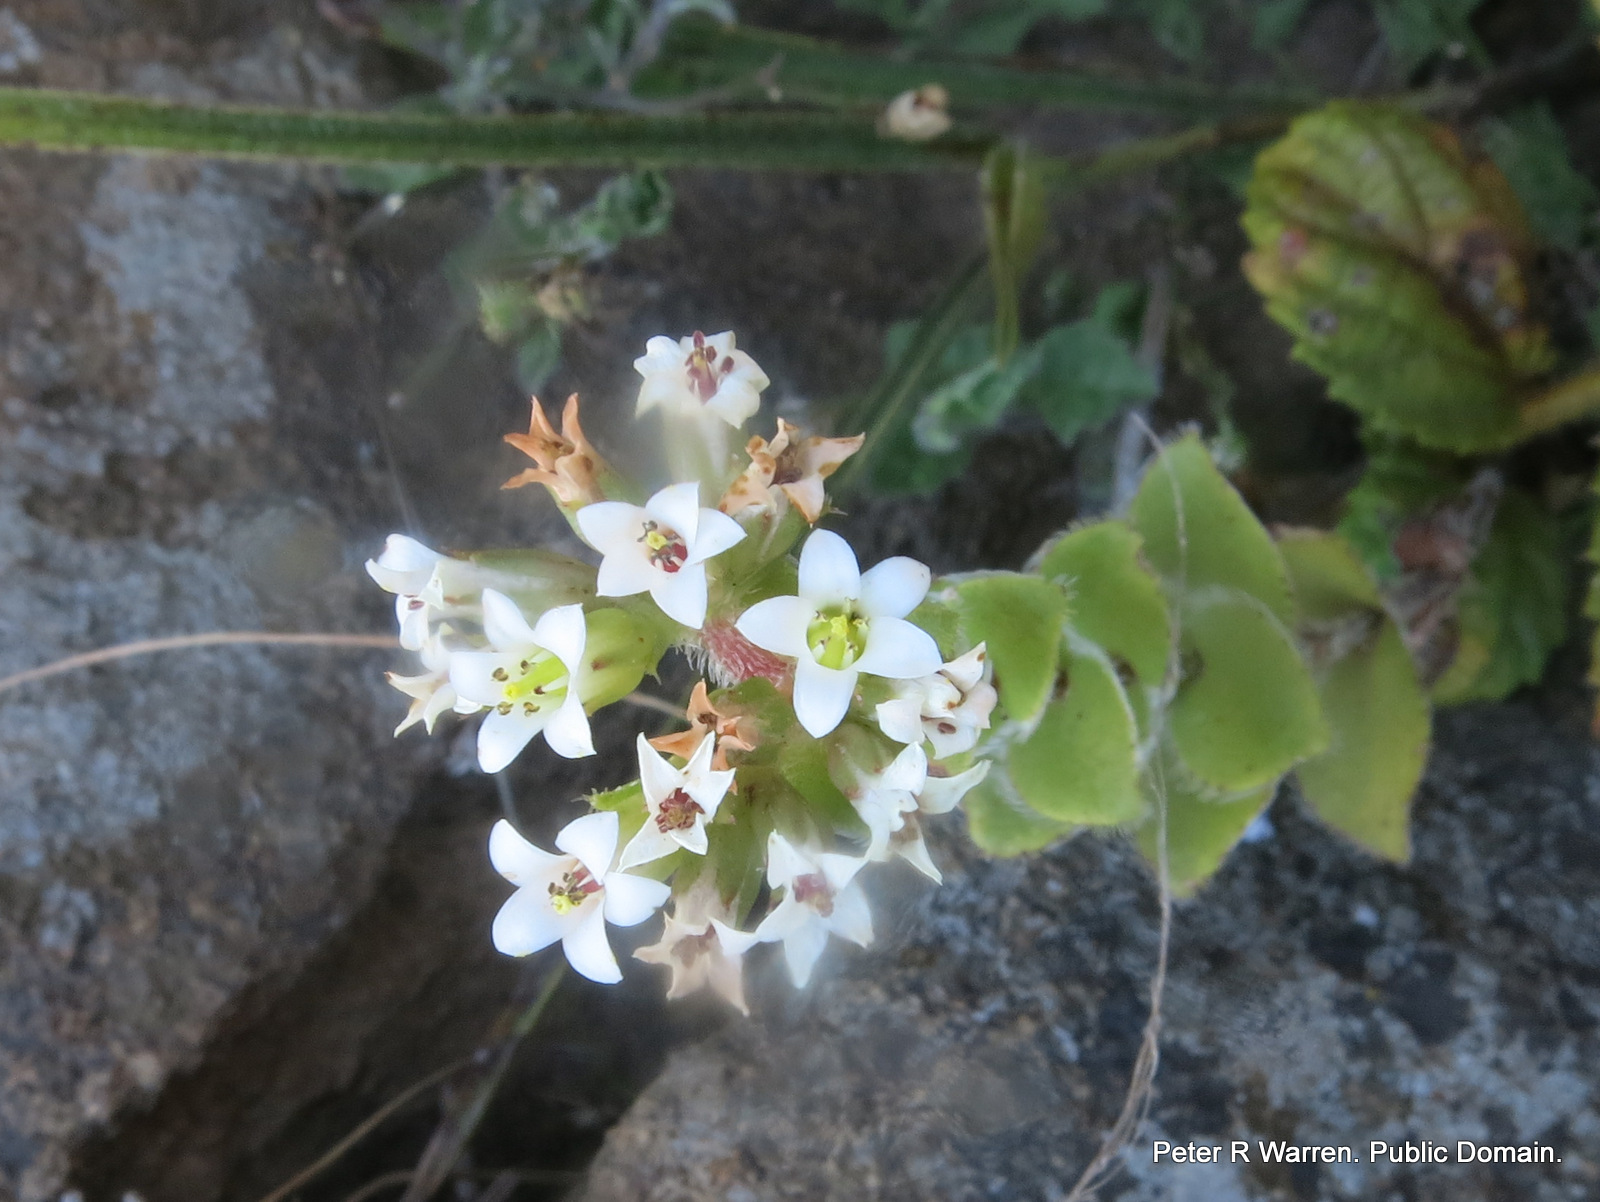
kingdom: Plantae
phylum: Tracheophyta
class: Magnoliopsida
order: Saxifragales
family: Crassulaceae
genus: Crassula
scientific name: Crassula obovata
